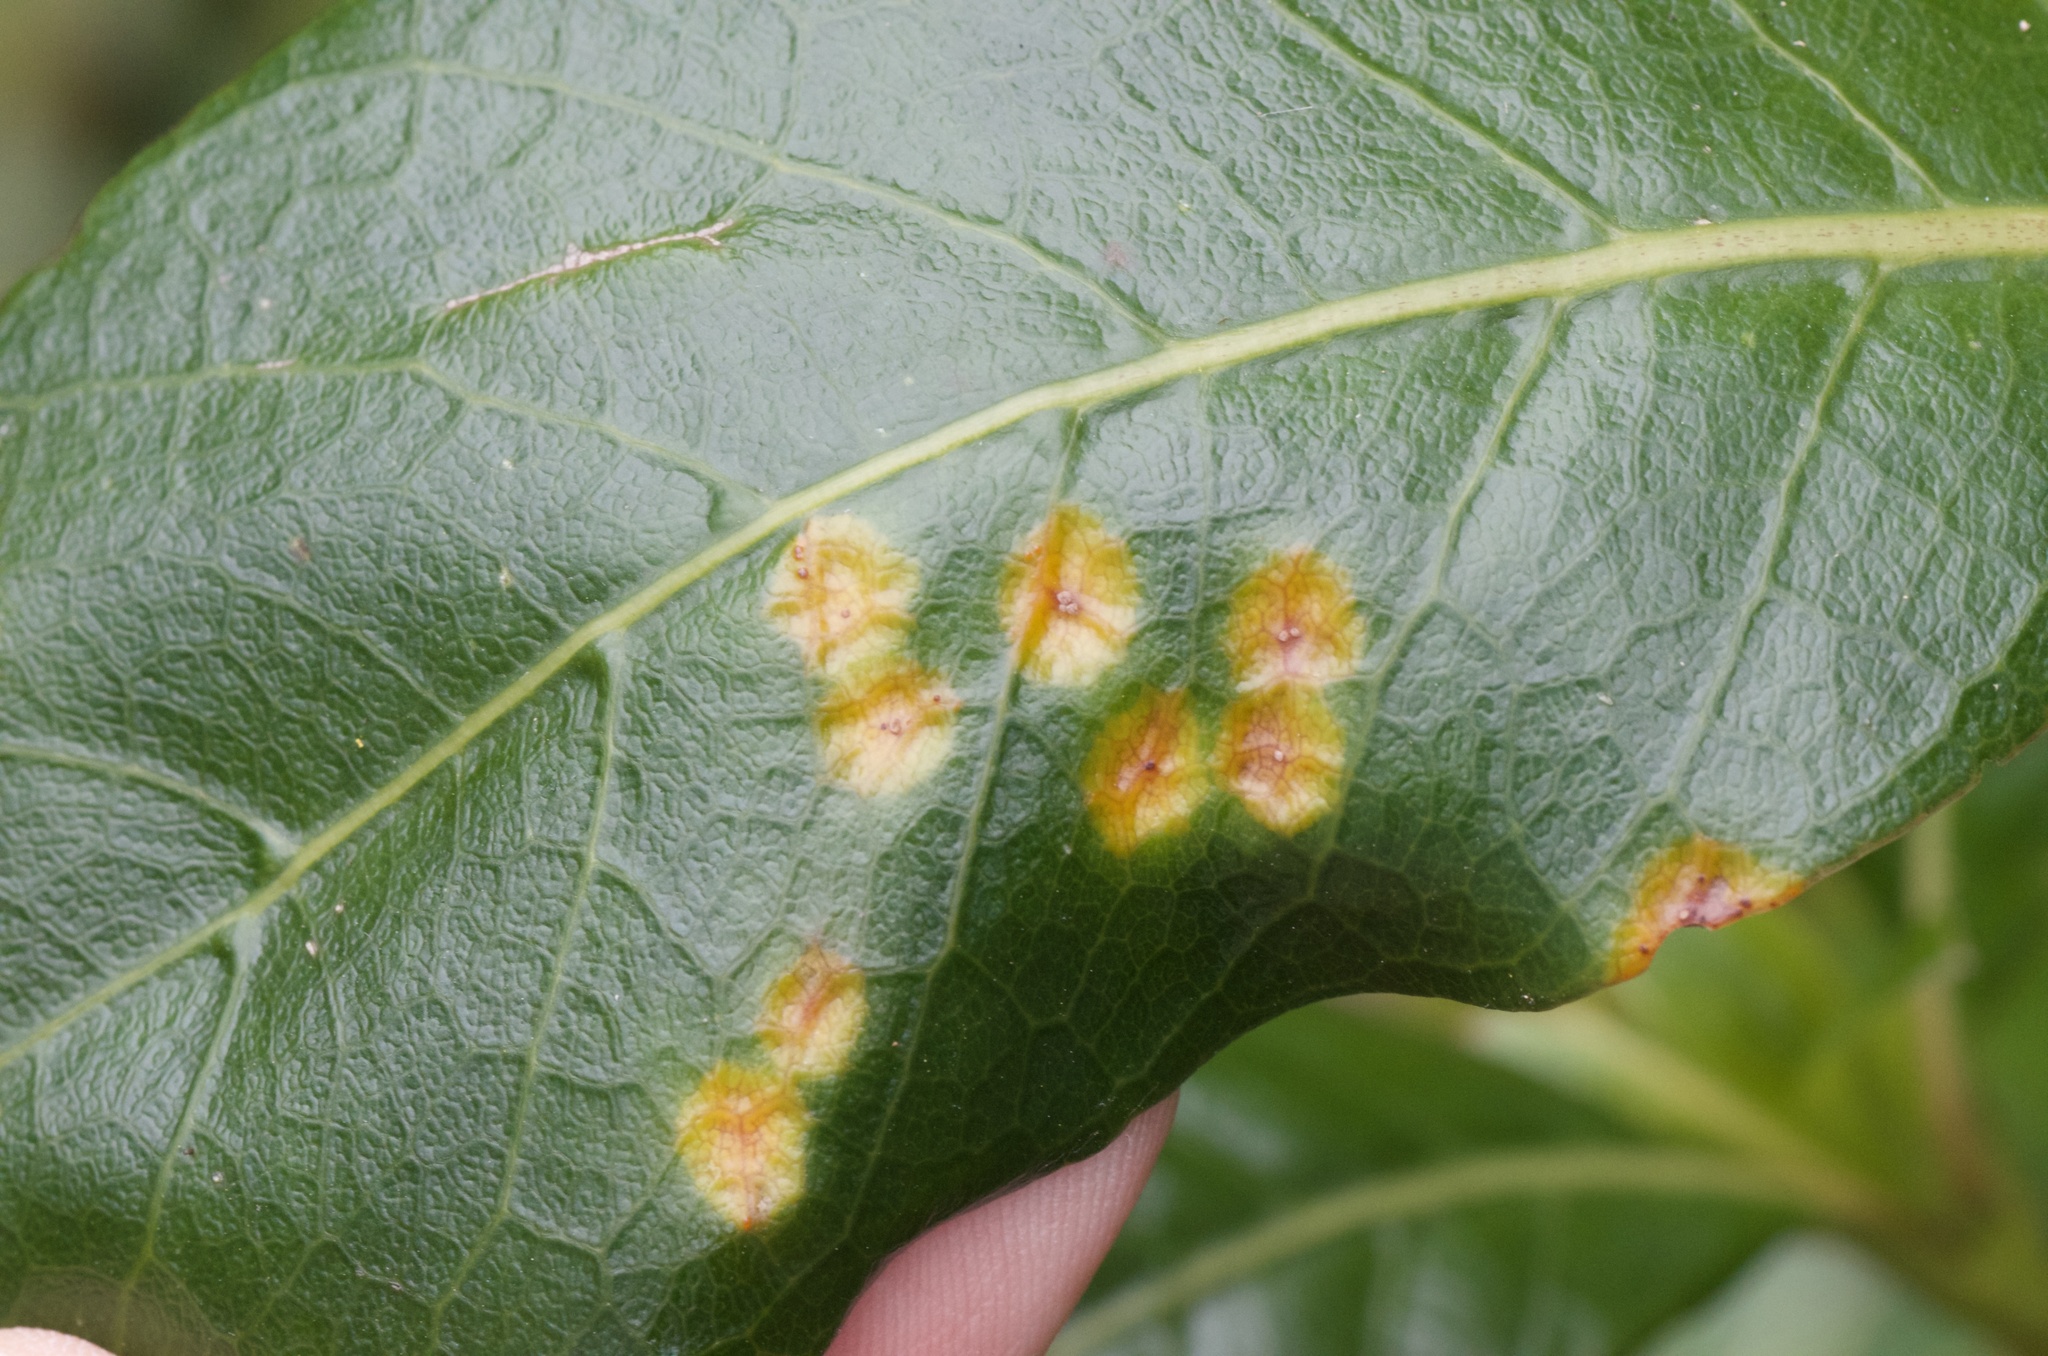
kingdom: Fungi
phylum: Basidiomycota
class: Pucciniomycetes
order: Pucciniales
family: Pucciniaceae
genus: Puccinia
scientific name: Puccinia coprosmae
